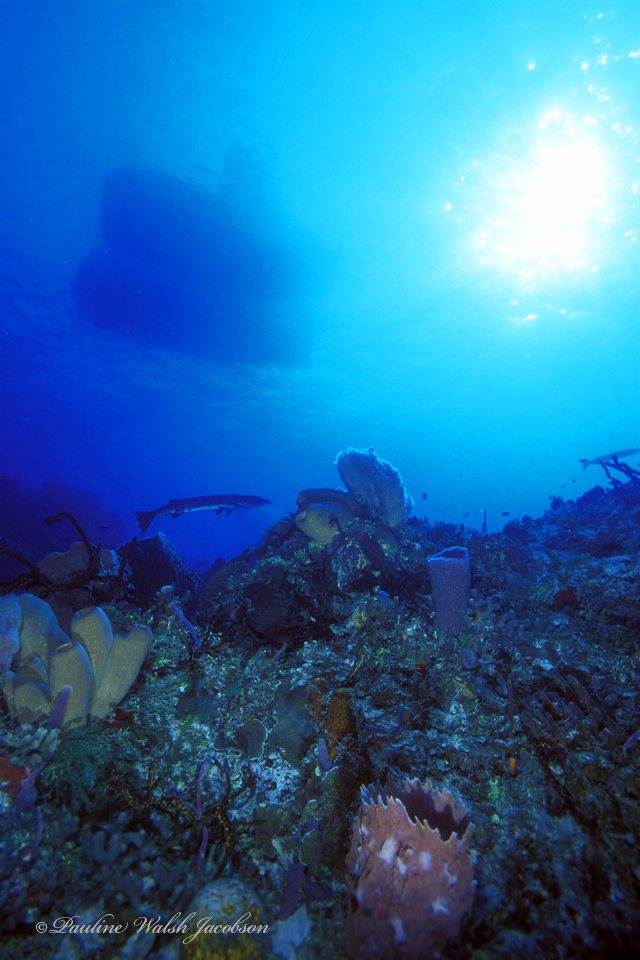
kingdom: Animalia
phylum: Chordata
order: Perciformes
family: Sphyraenidae
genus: Sphyraena
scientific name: Sphyraena barracuda
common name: Great barracuda
